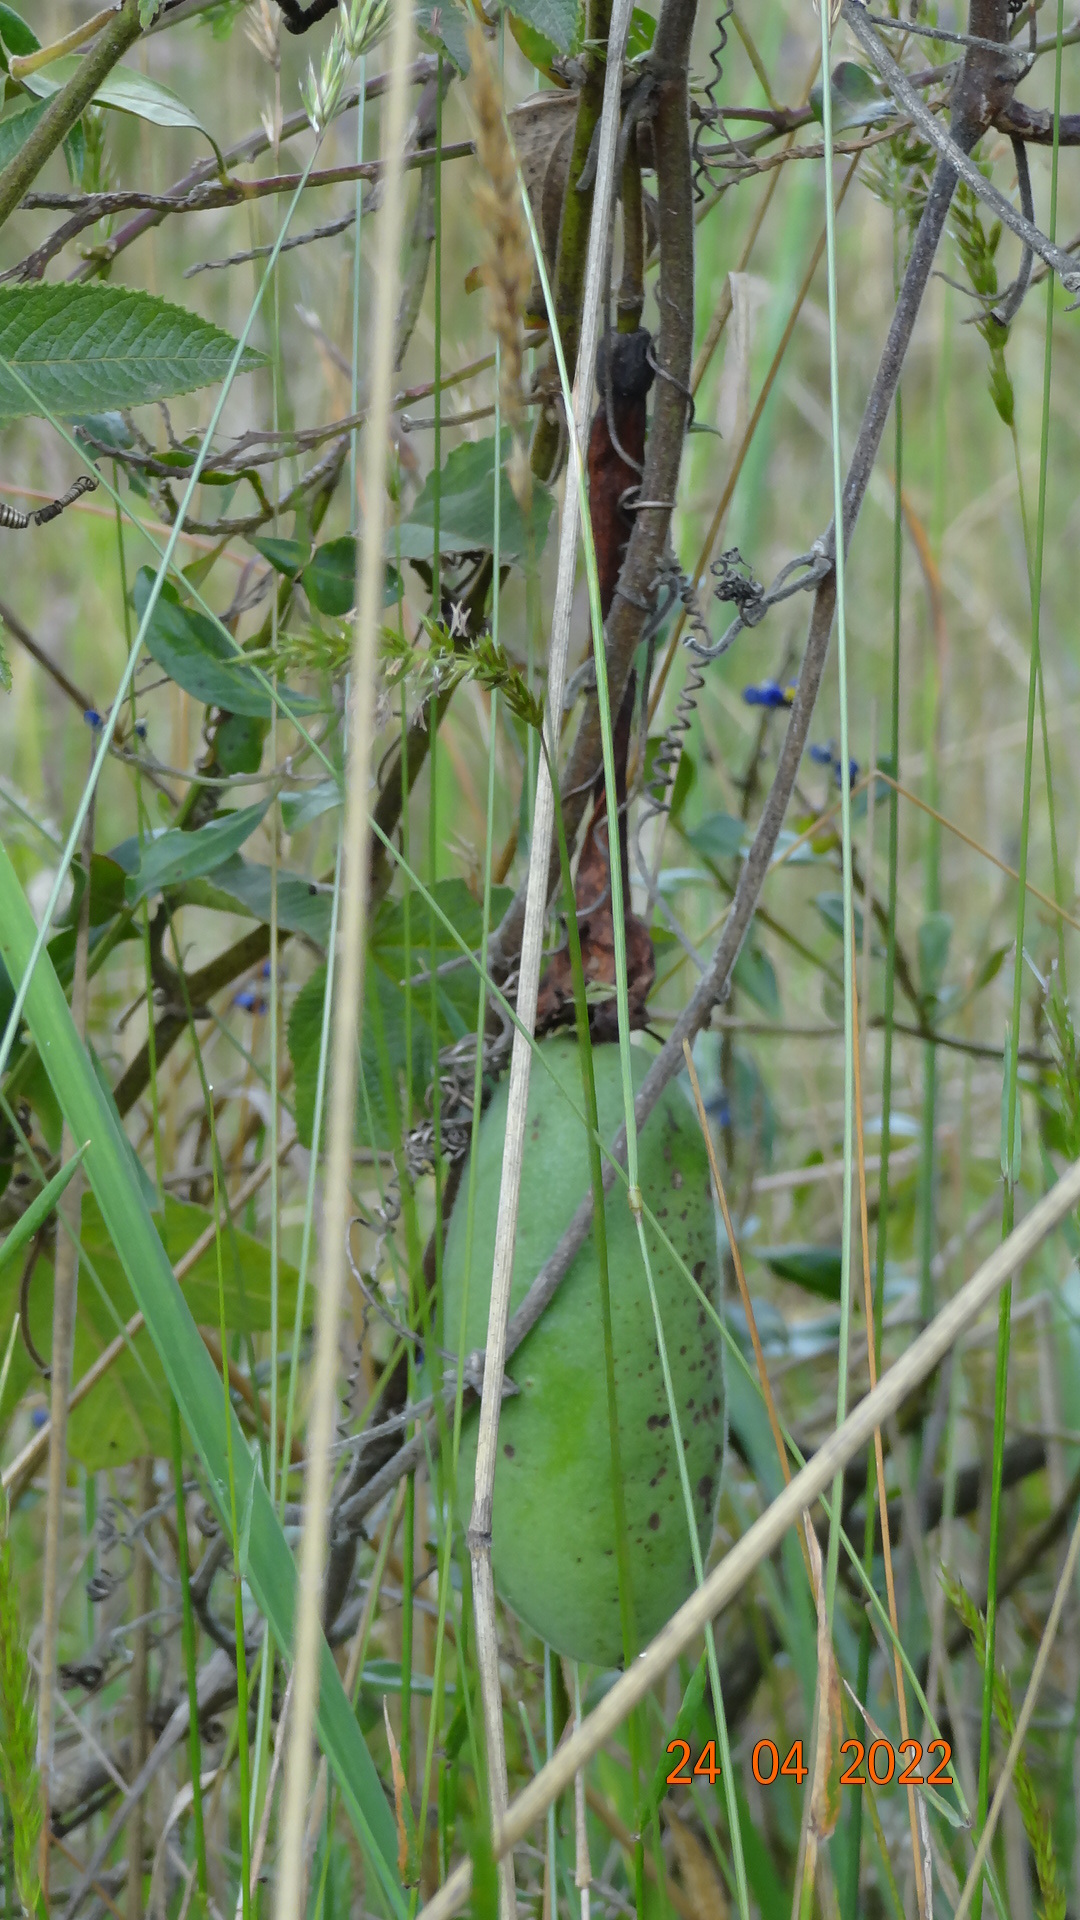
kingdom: Plantae
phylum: Tracheophyta
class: Magnoliopsida
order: Malpighiales
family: Passifloraceae
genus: Passiflora
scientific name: Passiflora tripartita
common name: Banana poka
